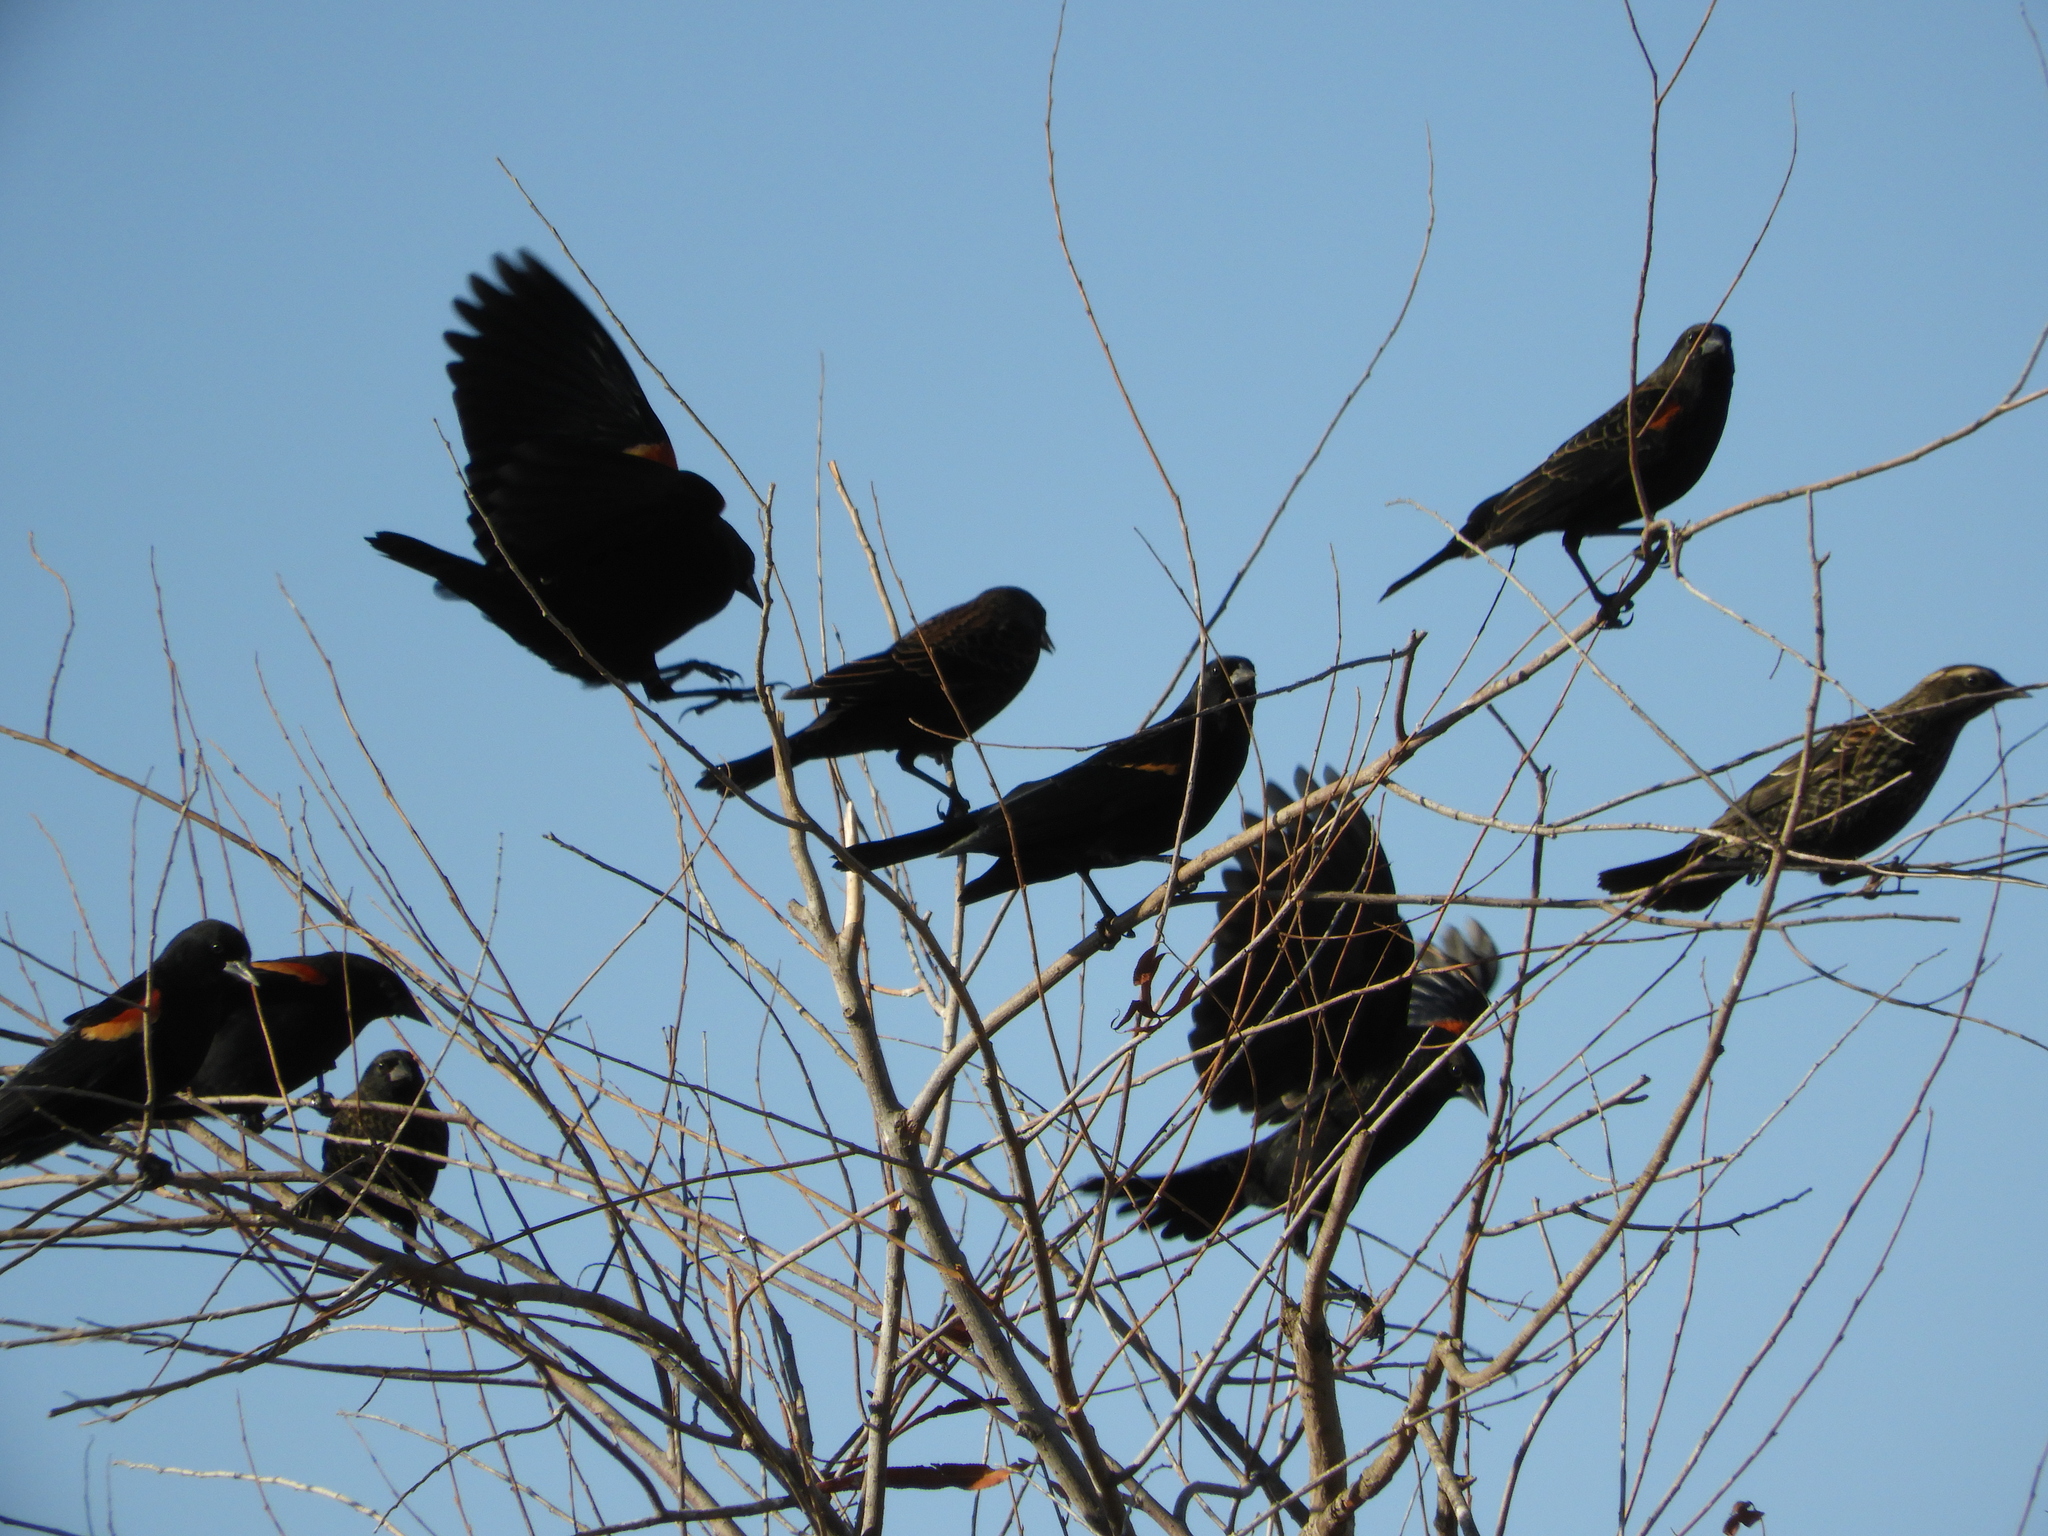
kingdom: Animalia
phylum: Chordata
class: Aves
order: Passeriformes
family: Icteridae
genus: Agelaius
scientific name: Agelaius phoeniceus
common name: Red-winged blackbird
